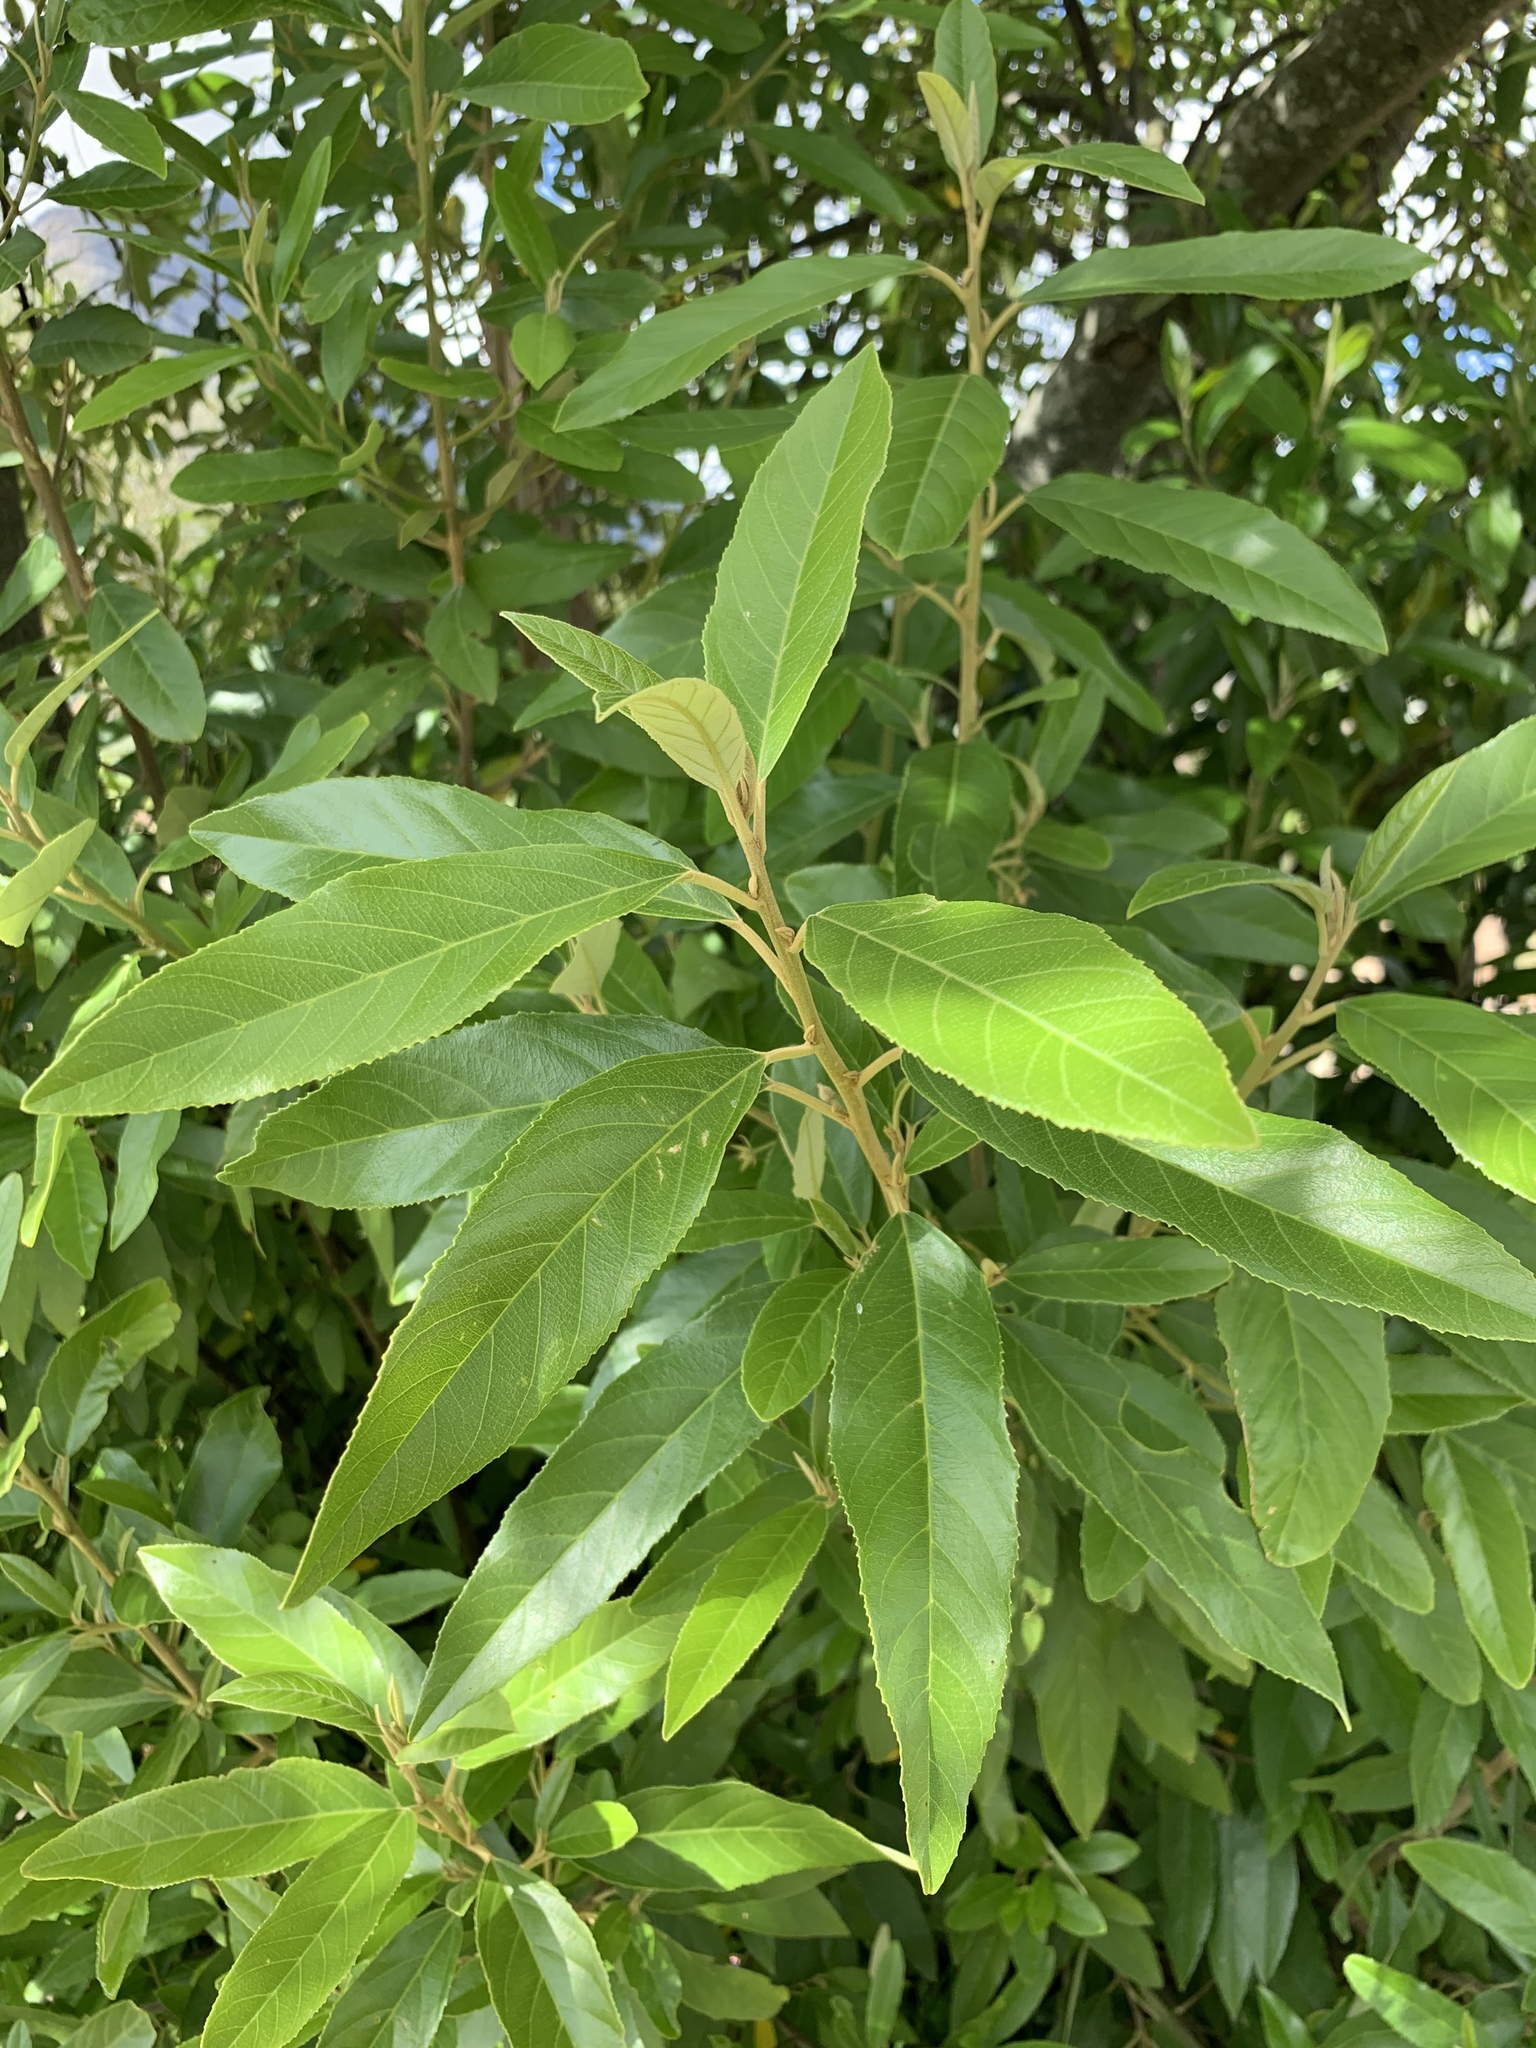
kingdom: Plantae
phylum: Tracheophyta
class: Magnoliopsida
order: Malpighiales
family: Achariaceae
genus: Kiggelaria
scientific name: Kiggelaria africana
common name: Wild peach
